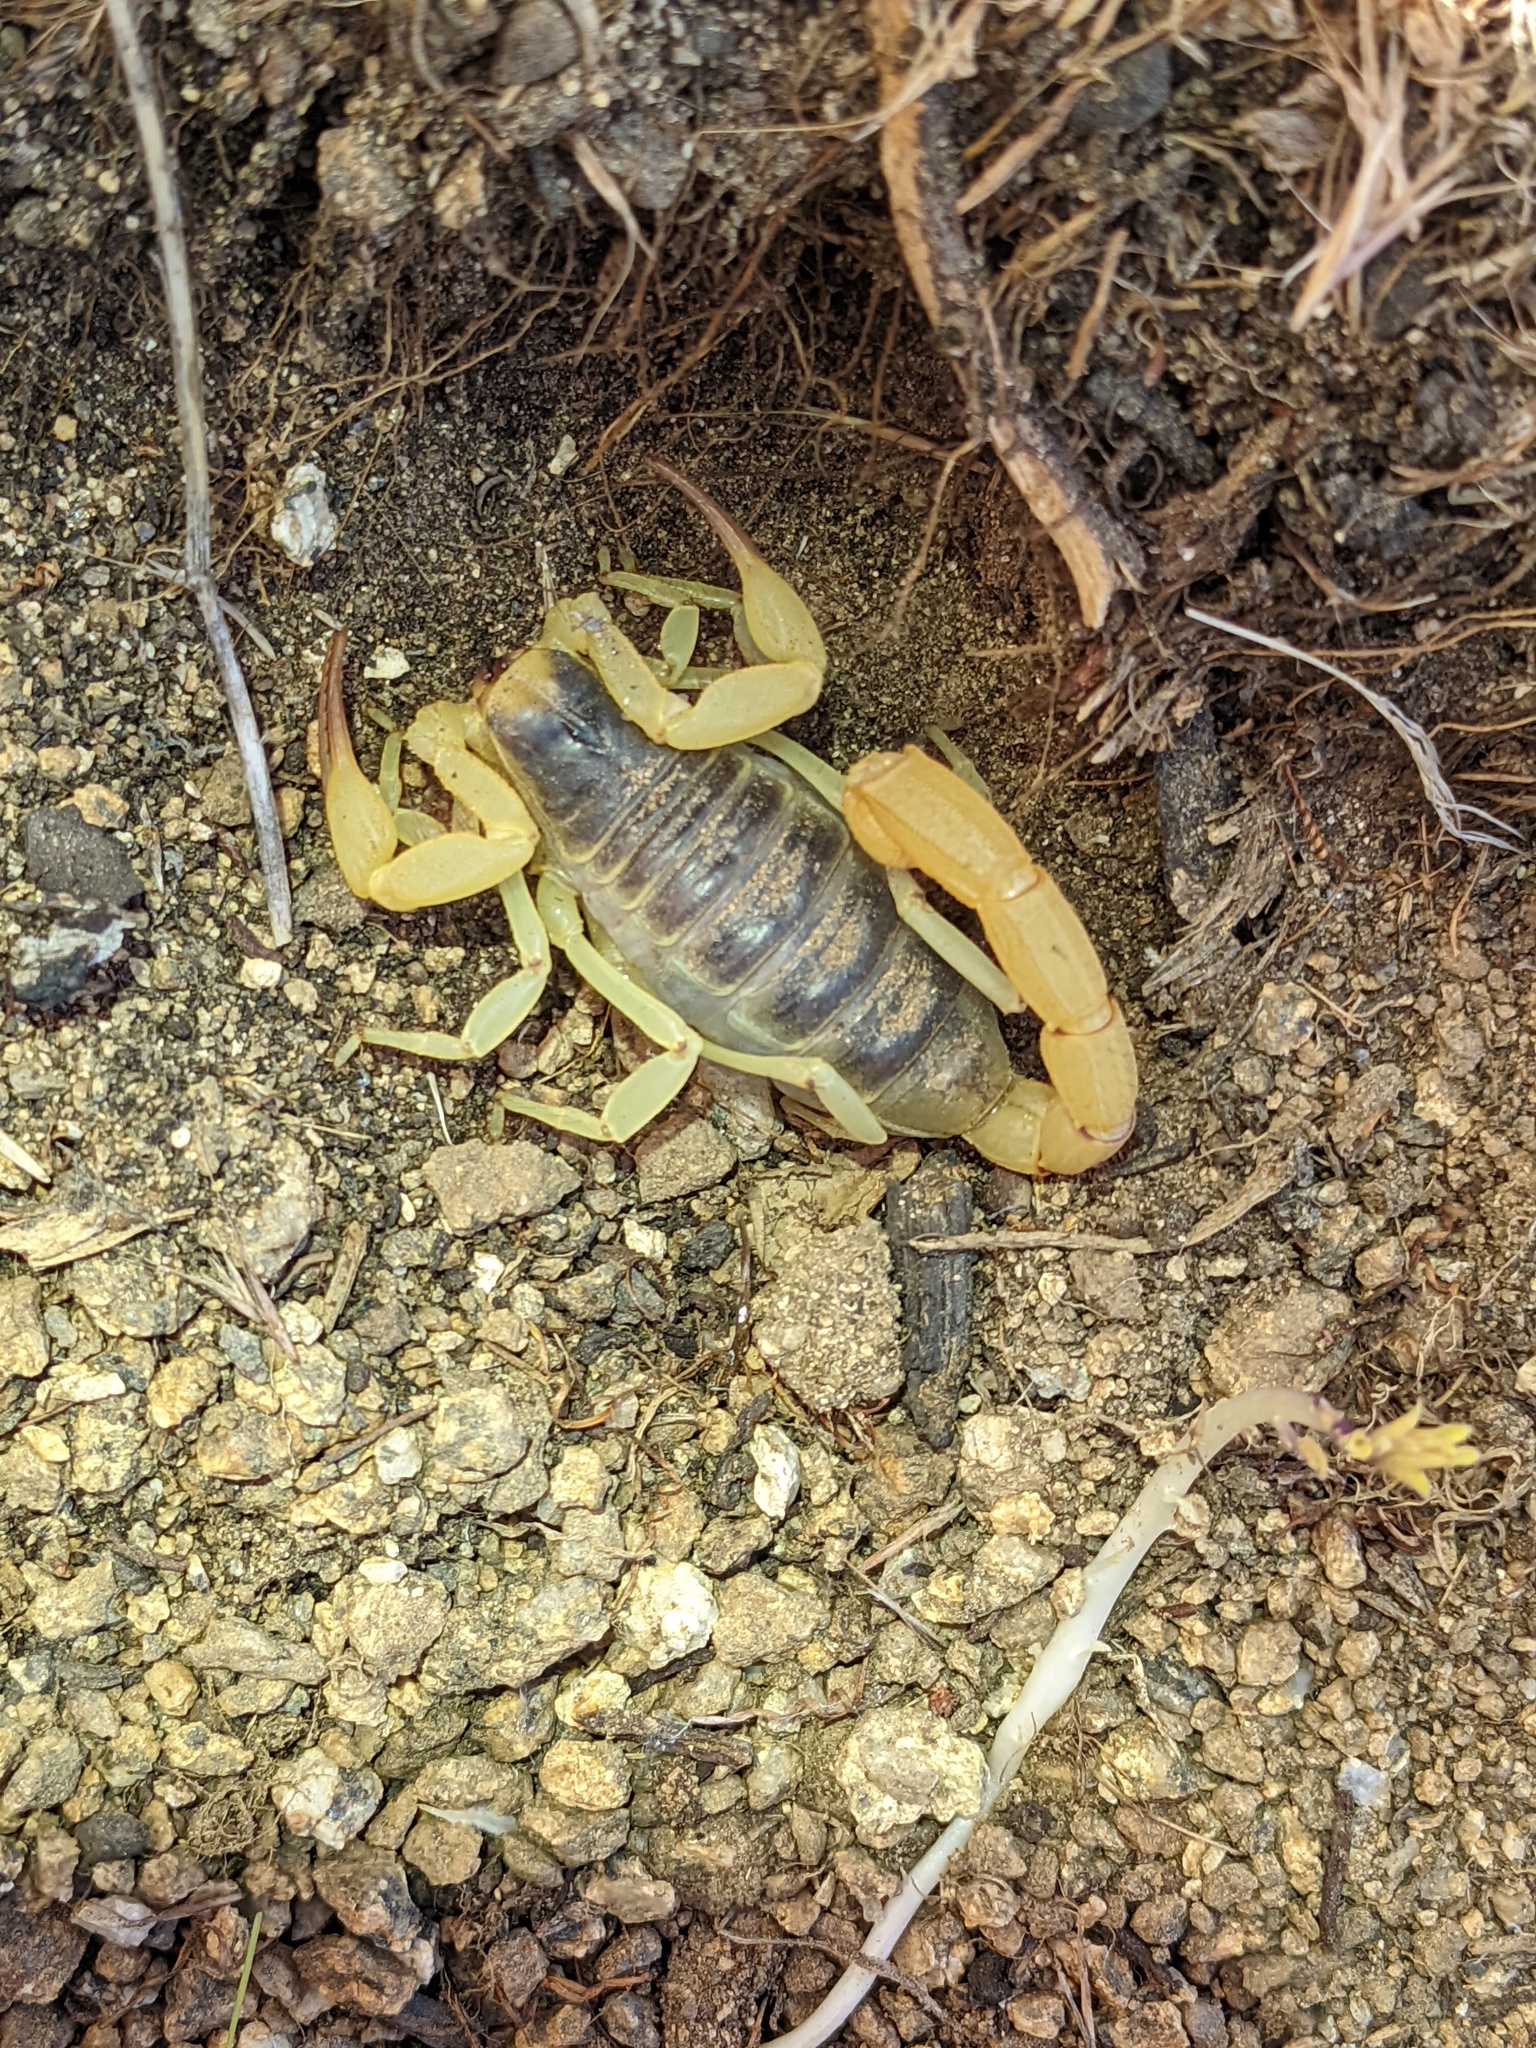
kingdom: Animalia
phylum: Arthropoda
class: Arachnida
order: Scorpiones
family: Hadruridae
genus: Hadrurus
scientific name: Hadrurus anzaborrego
